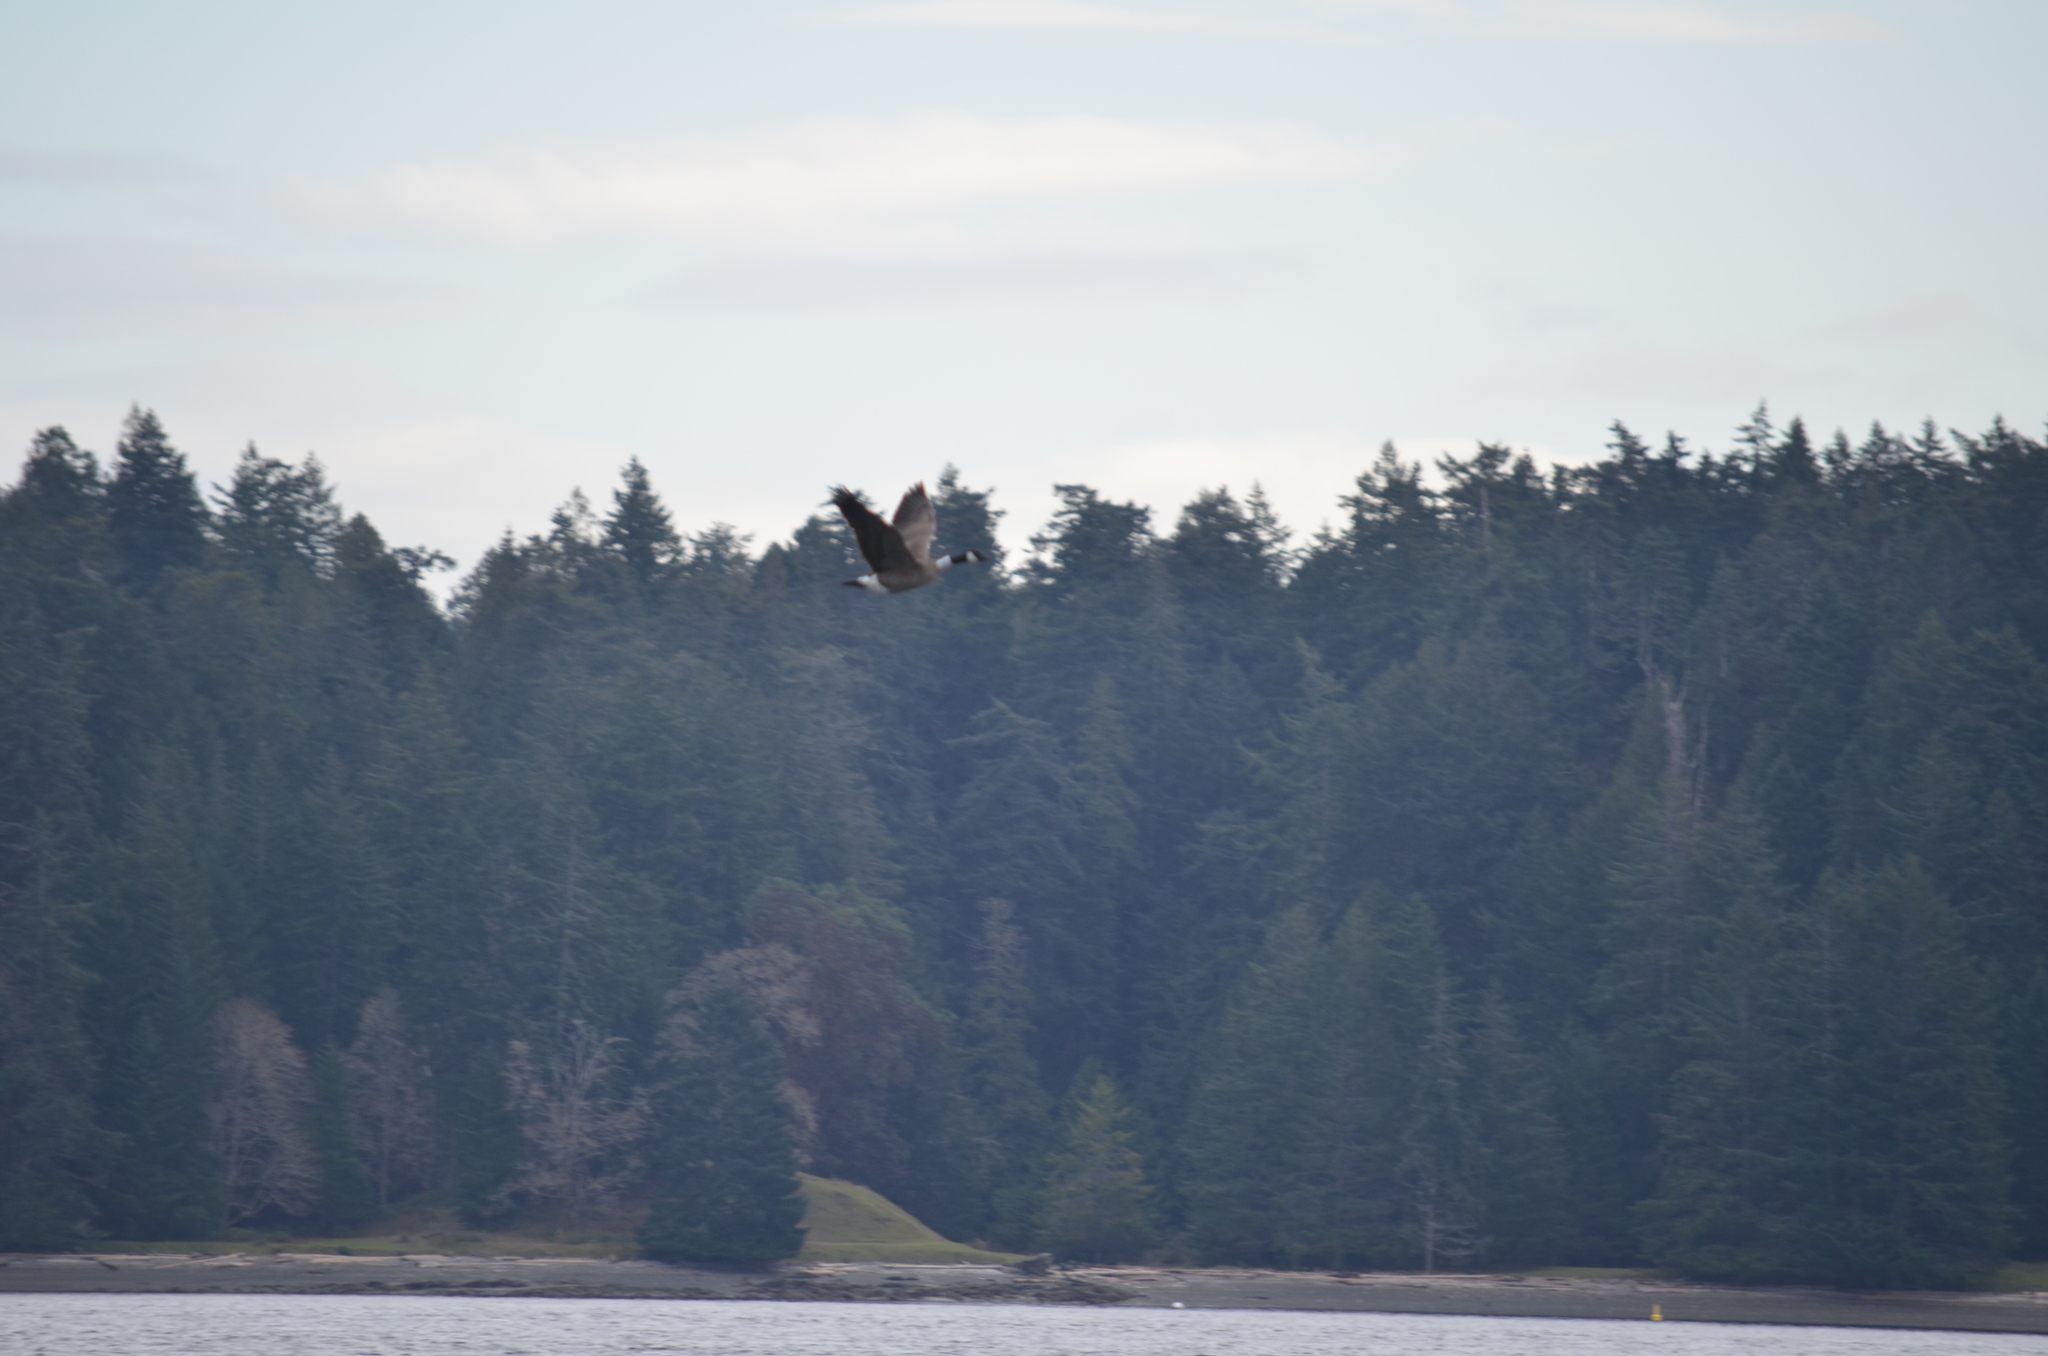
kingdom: Animalia
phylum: Chordata
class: Aves
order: Anseriformes
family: Anatidae
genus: Branta
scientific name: Branta canadensis
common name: Canada goose
